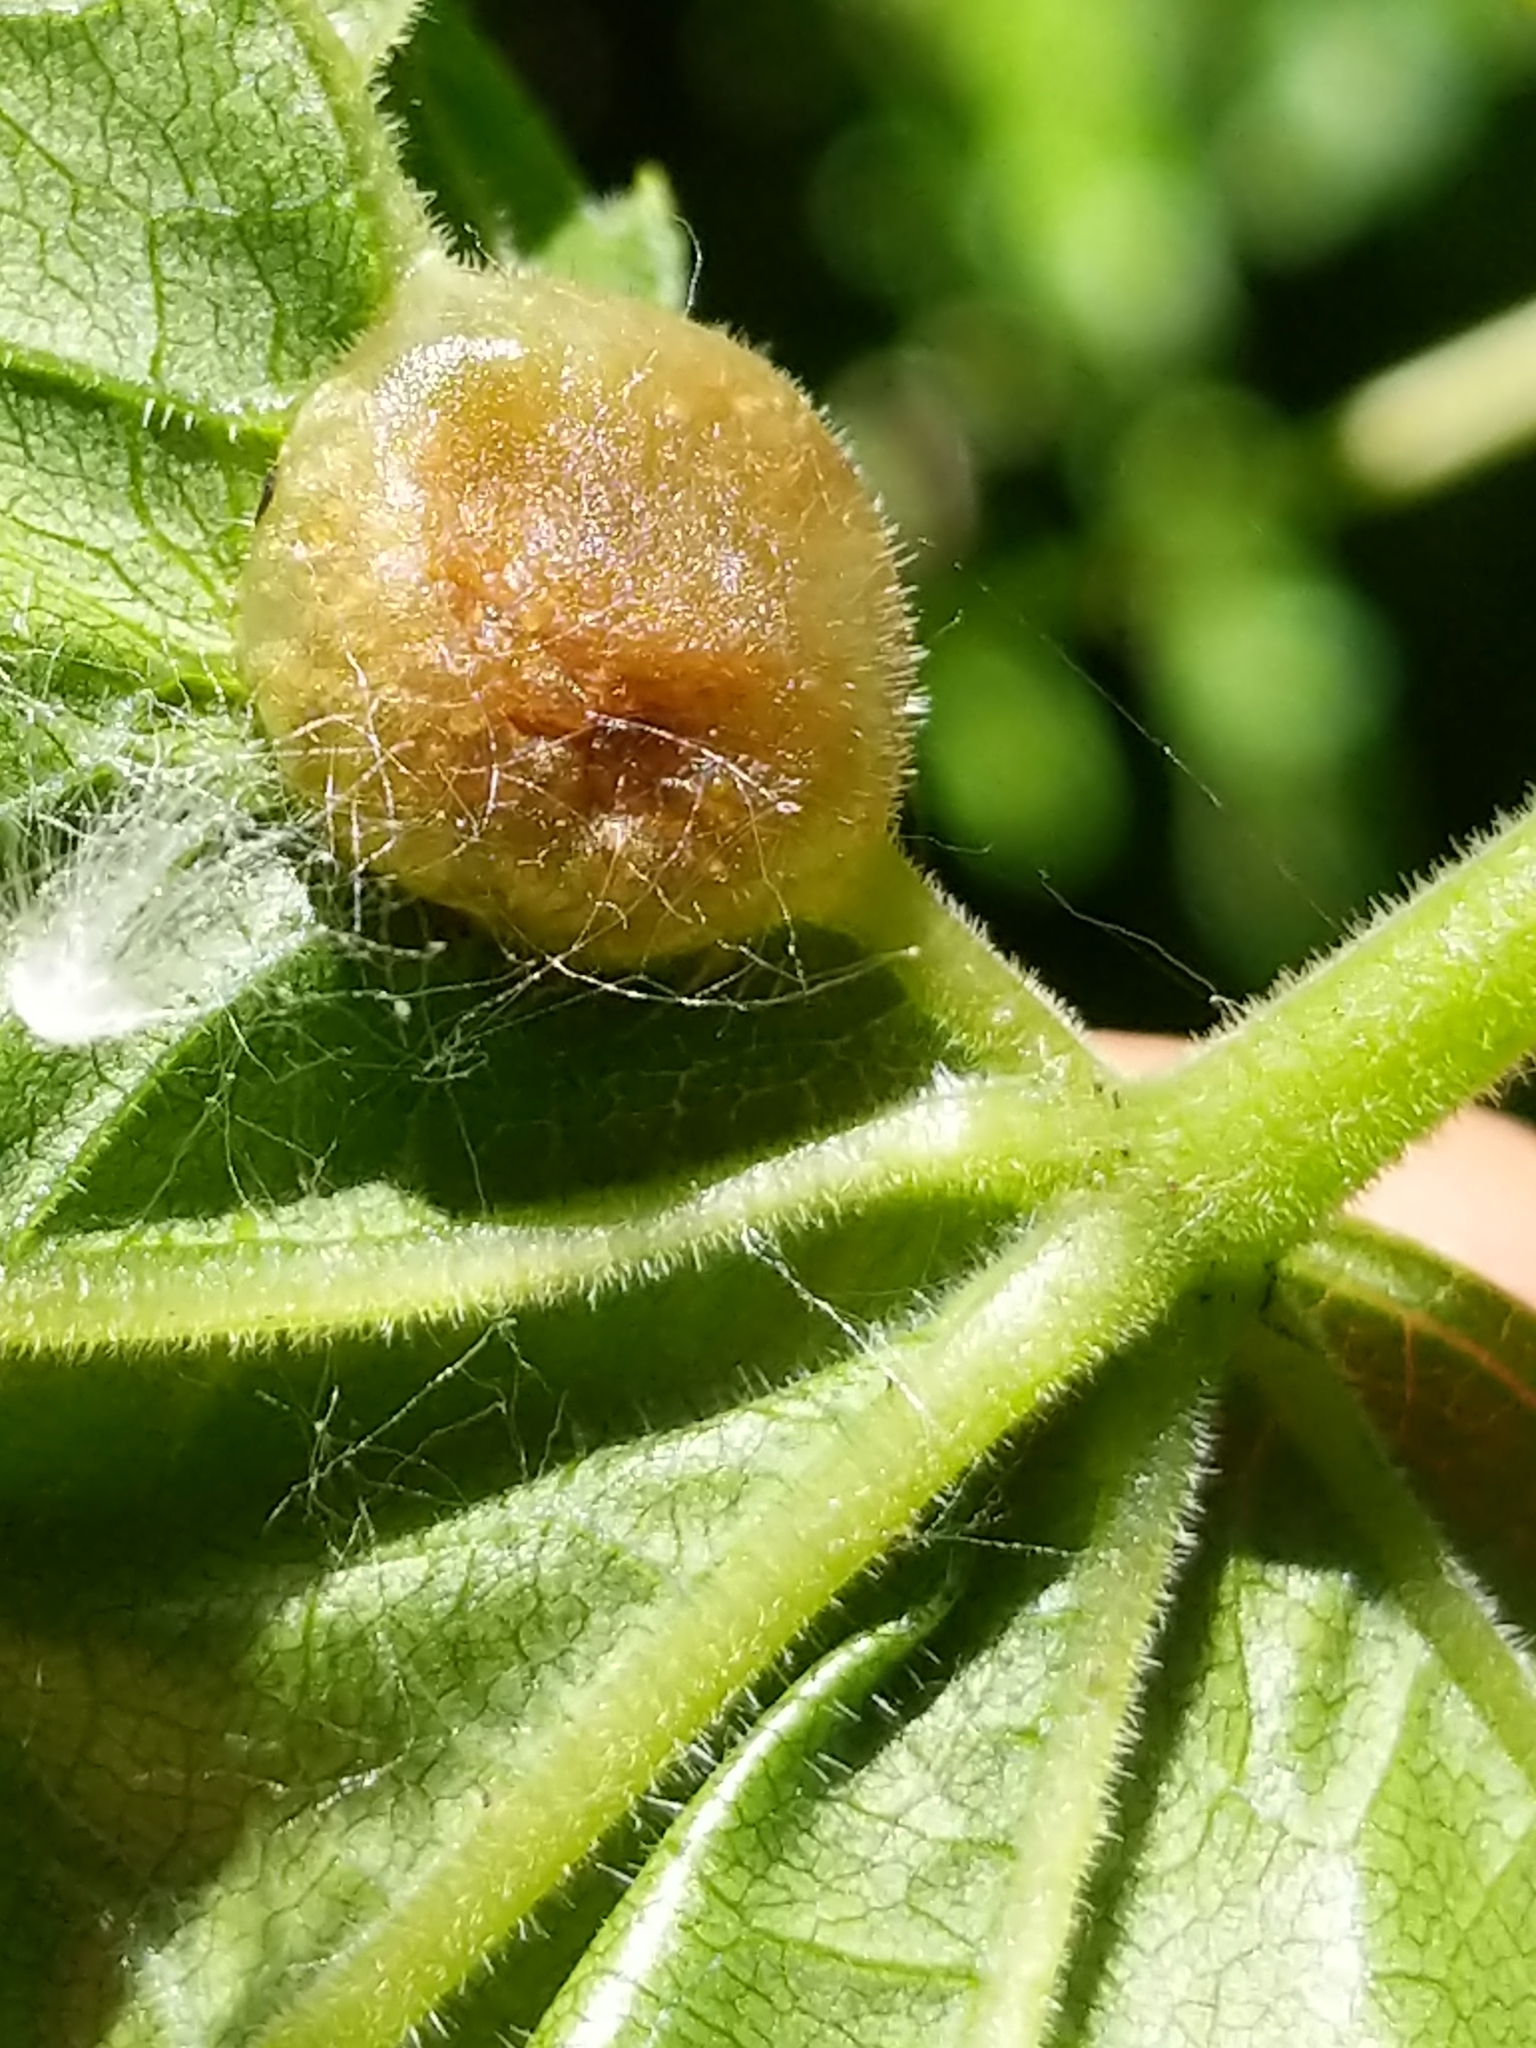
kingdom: Animalia
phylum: Arthropoda
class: Insecta
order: Diptera
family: Cecidomyiidae
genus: Vitisiella
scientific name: Vitisiella brevicauda
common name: Grape tumid gallmaker midge
